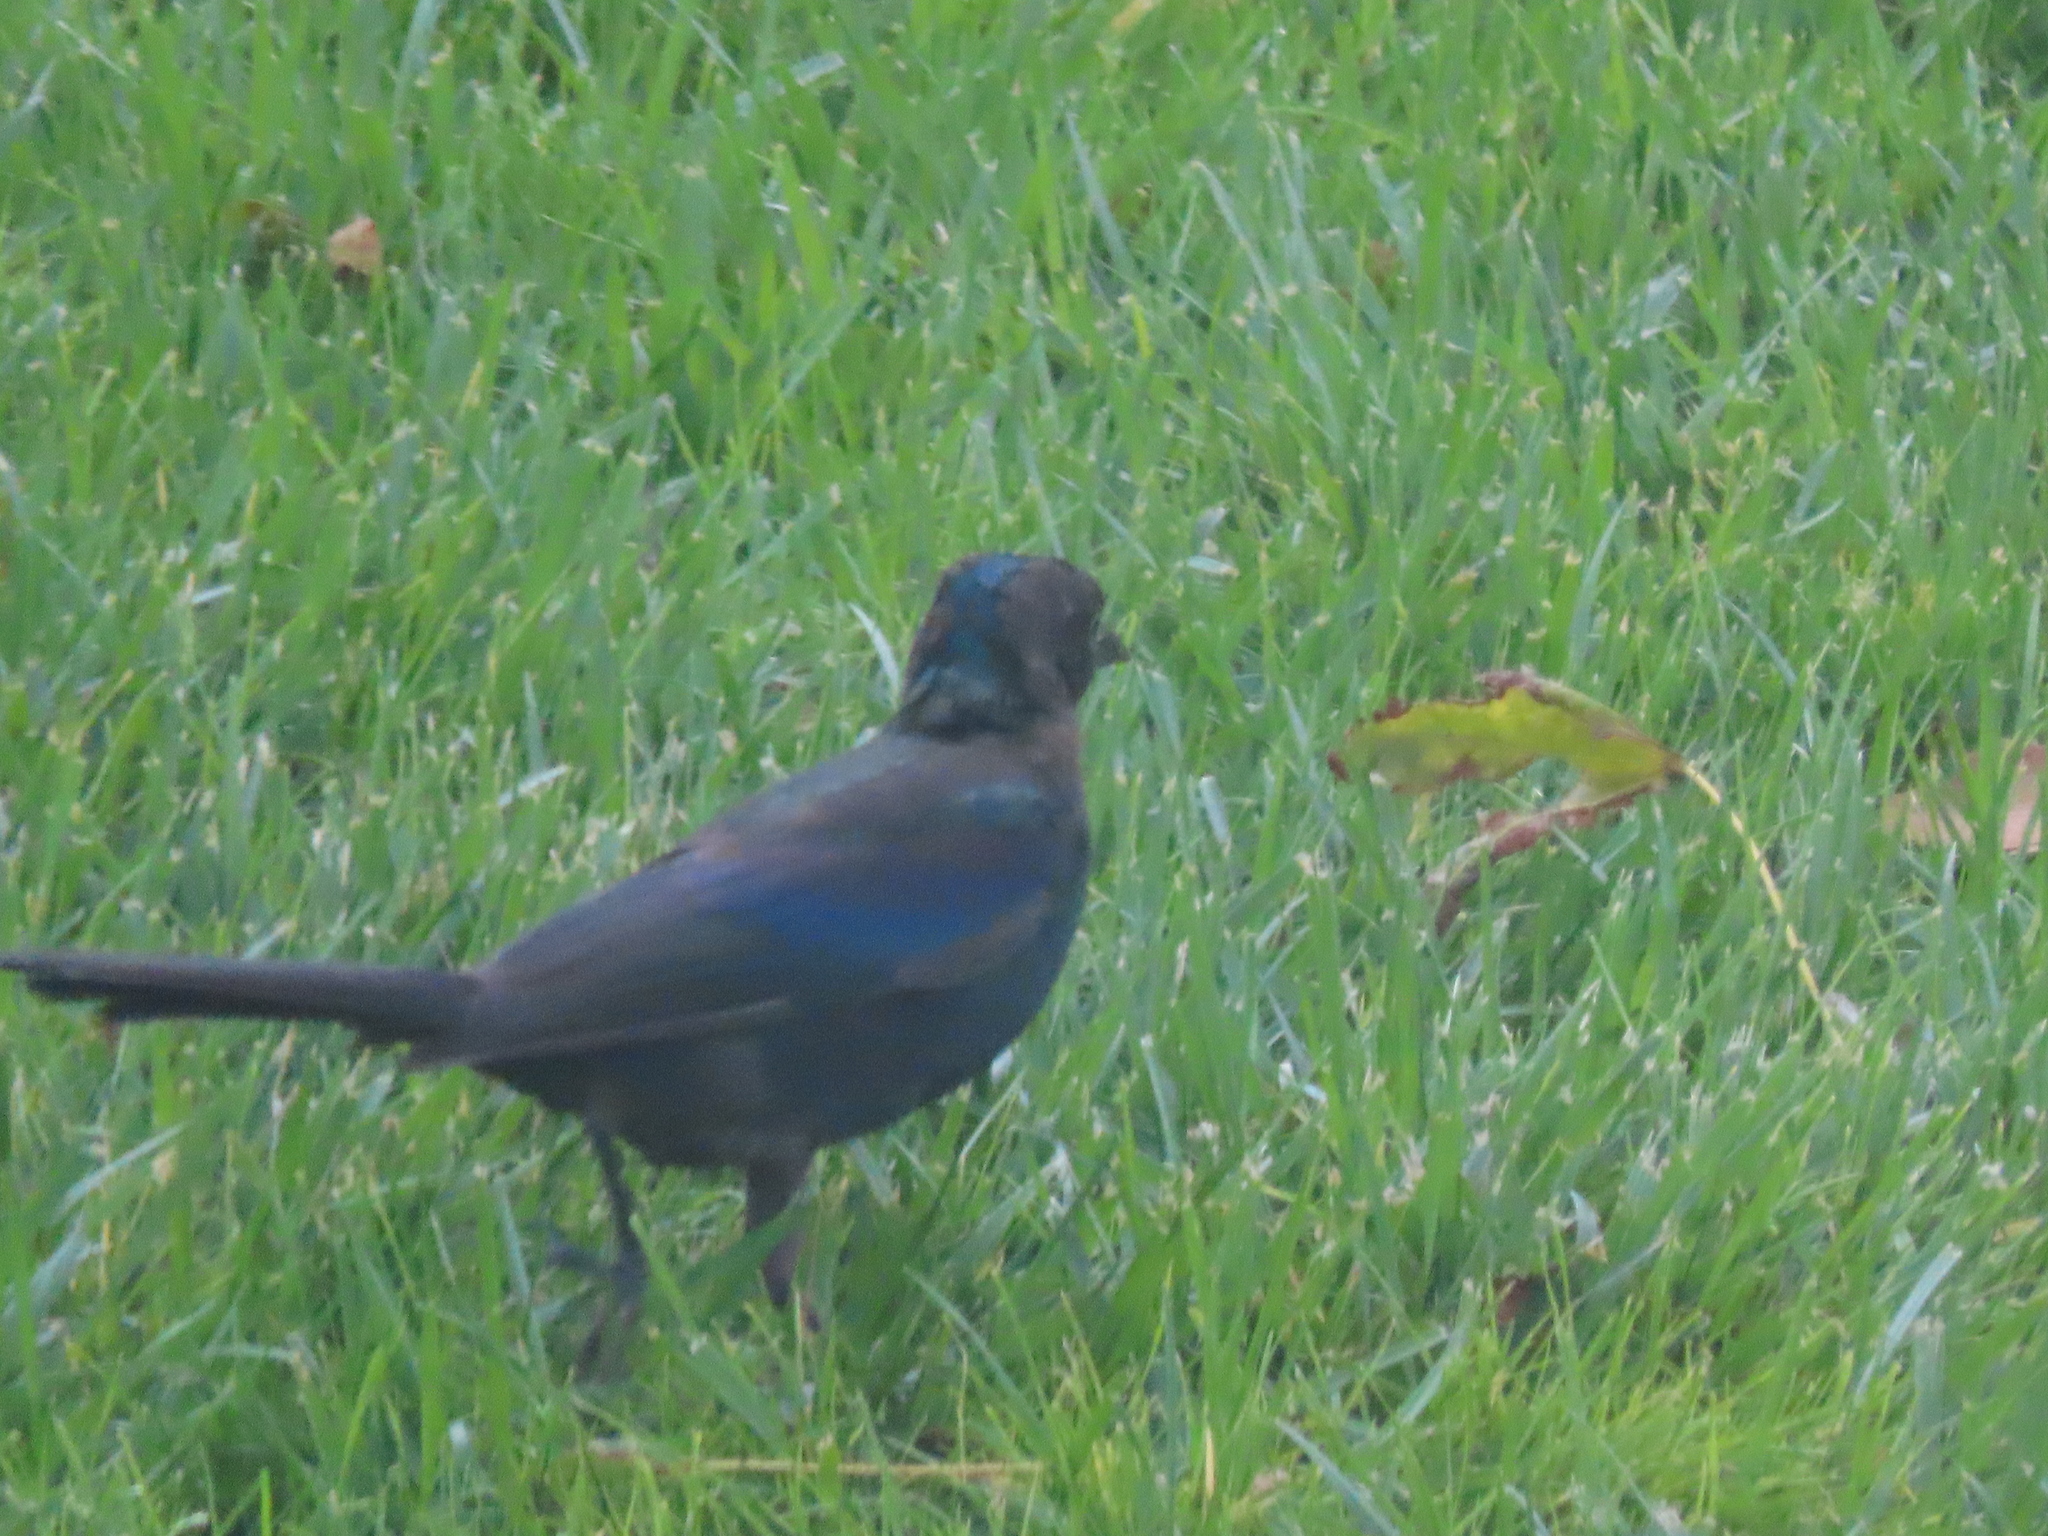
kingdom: Animalia
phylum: Chordata
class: Aves
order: Passeriformes
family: Icteridae
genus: Quiscalus
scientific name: Quiscalus quiscula
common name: Common grackle
